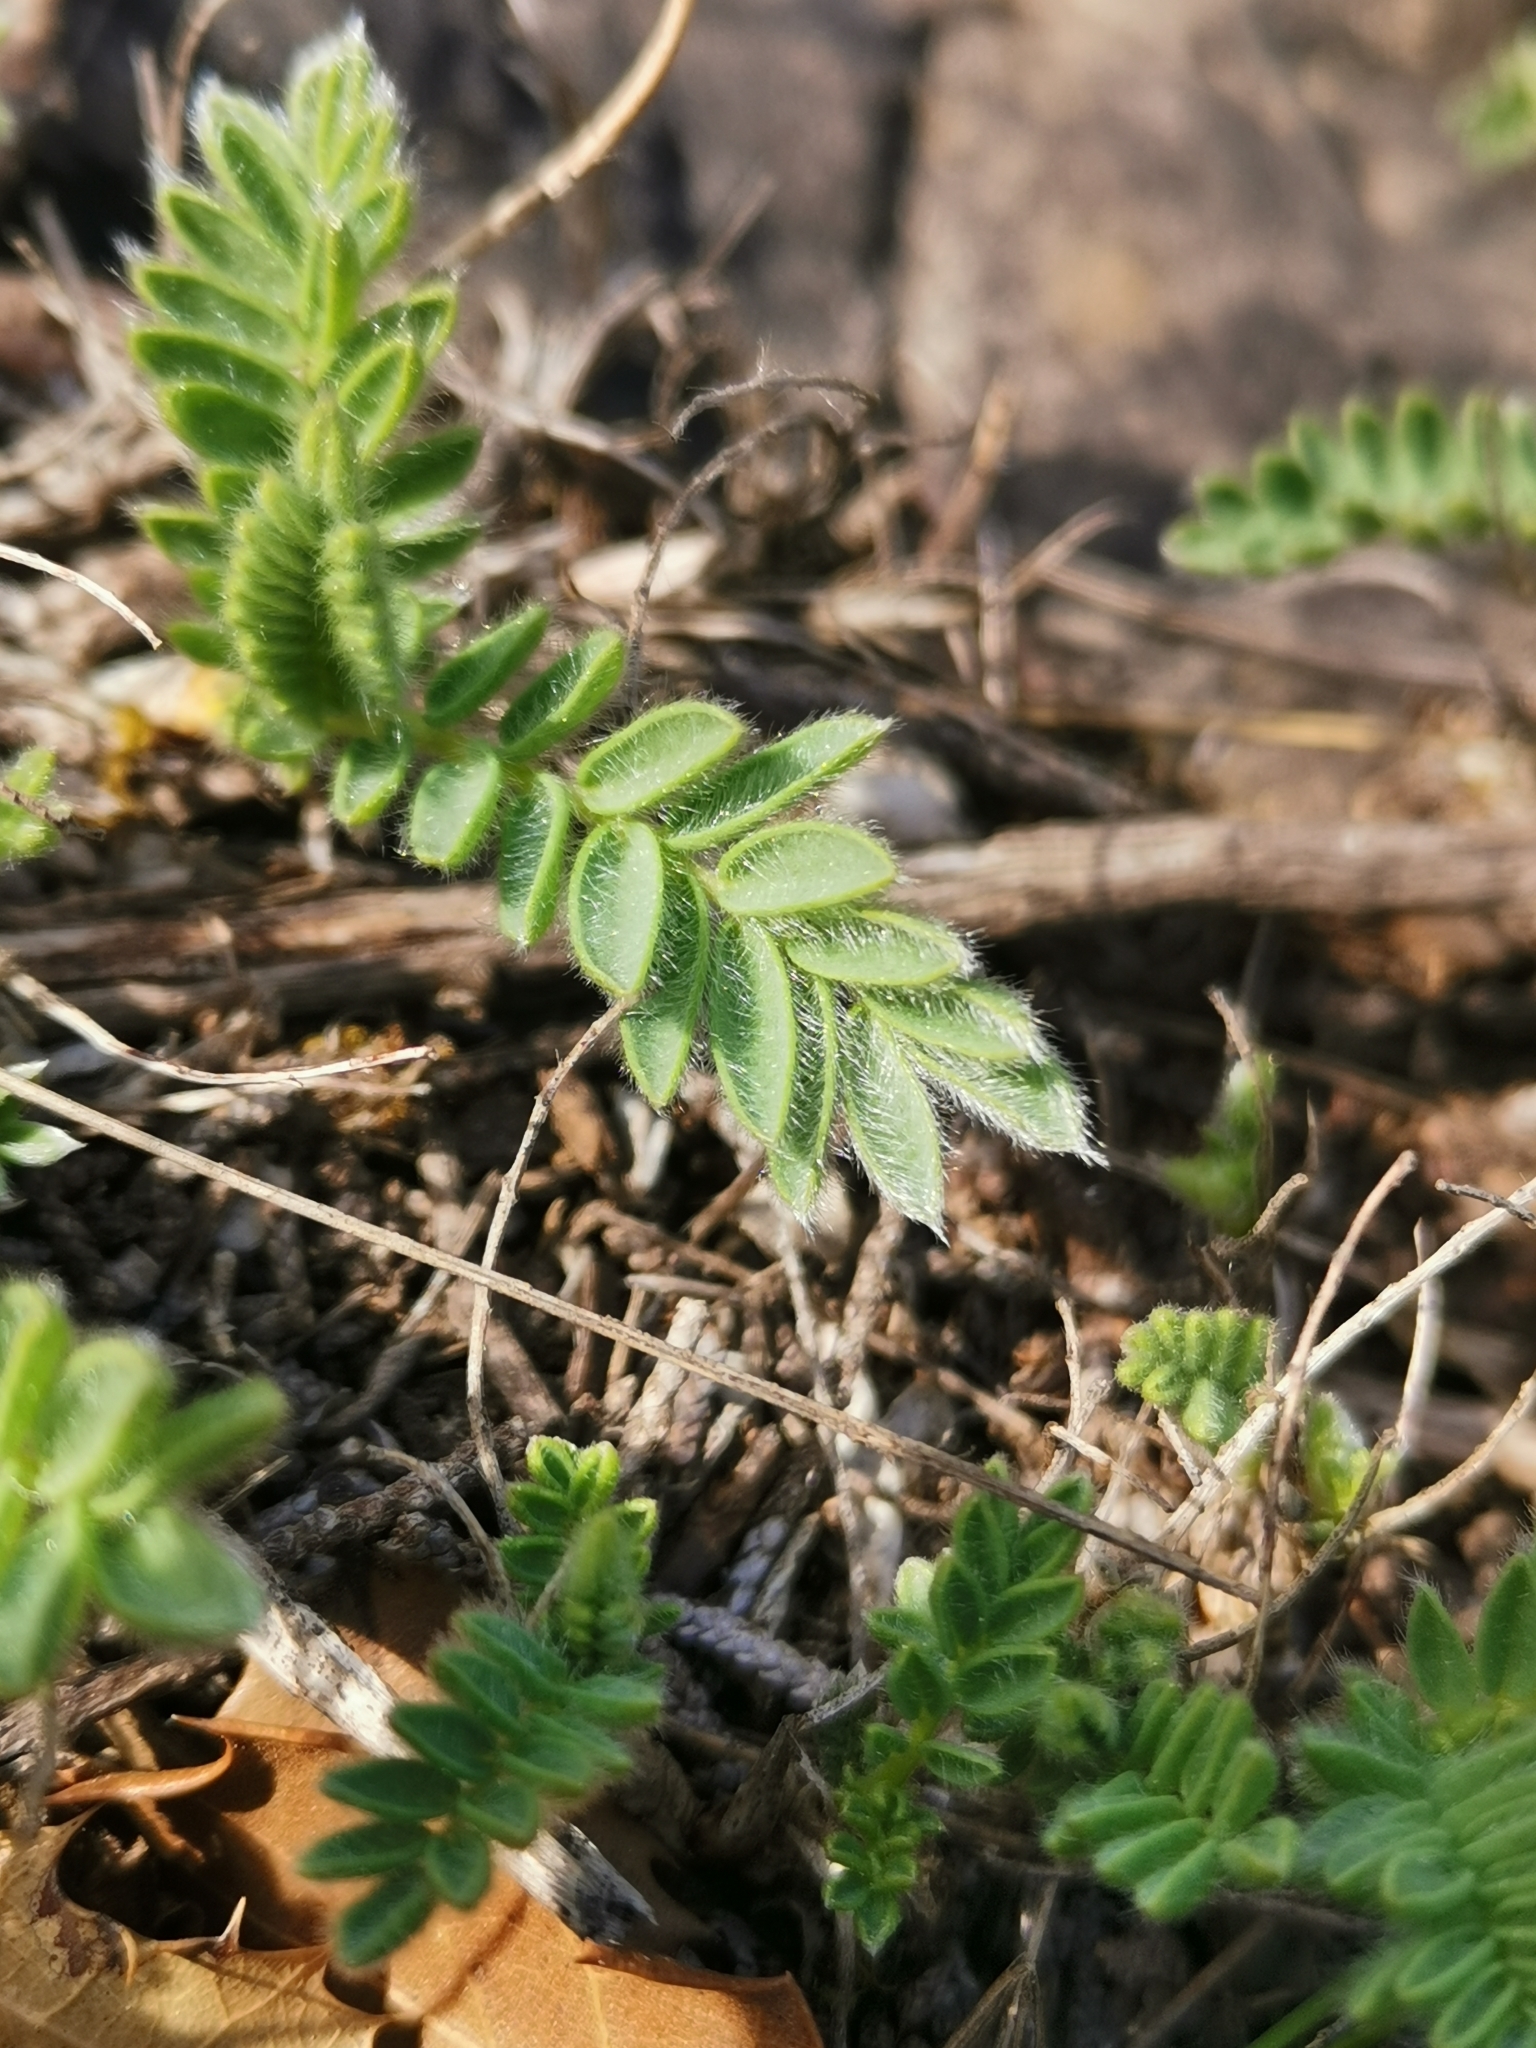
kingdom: Plantae
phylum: Tracheophyta
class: Magnoliopsida
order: Fabales
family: Fabaceae
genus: Anthyllis
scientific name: Anthyllis montana
